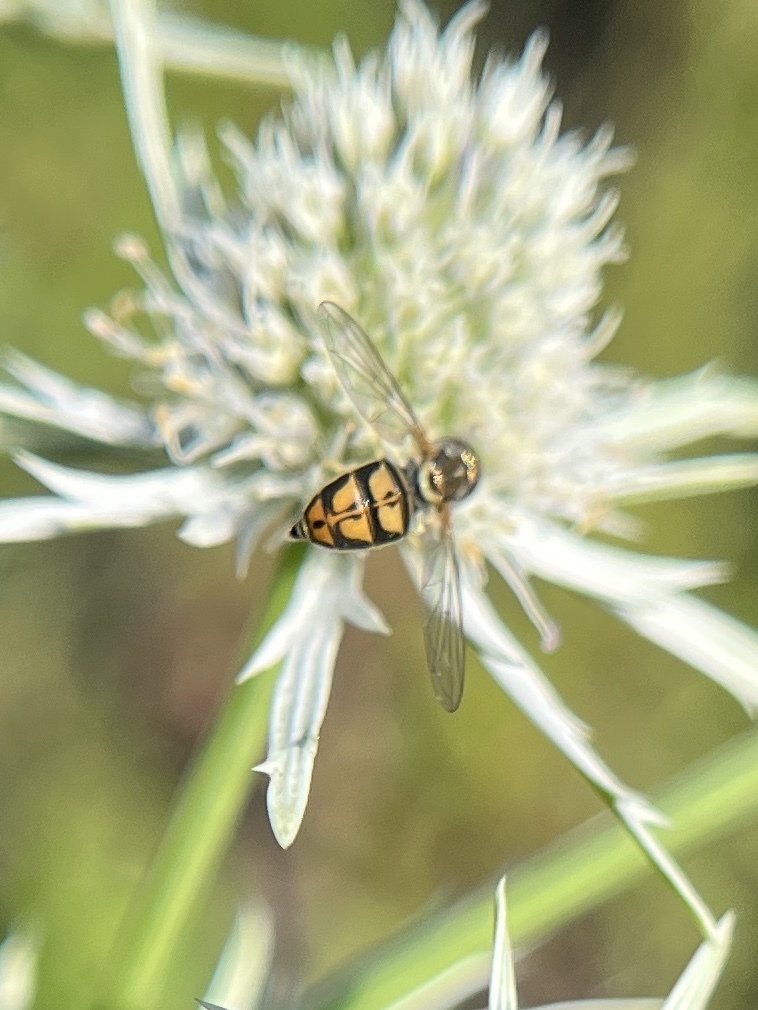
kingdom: Animalia
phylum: Arthropoda
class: Insecta
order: Diptera
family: Syrphidae
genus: Toxomerus
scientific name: Toxomerus marginatus
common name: Syrphid fly
